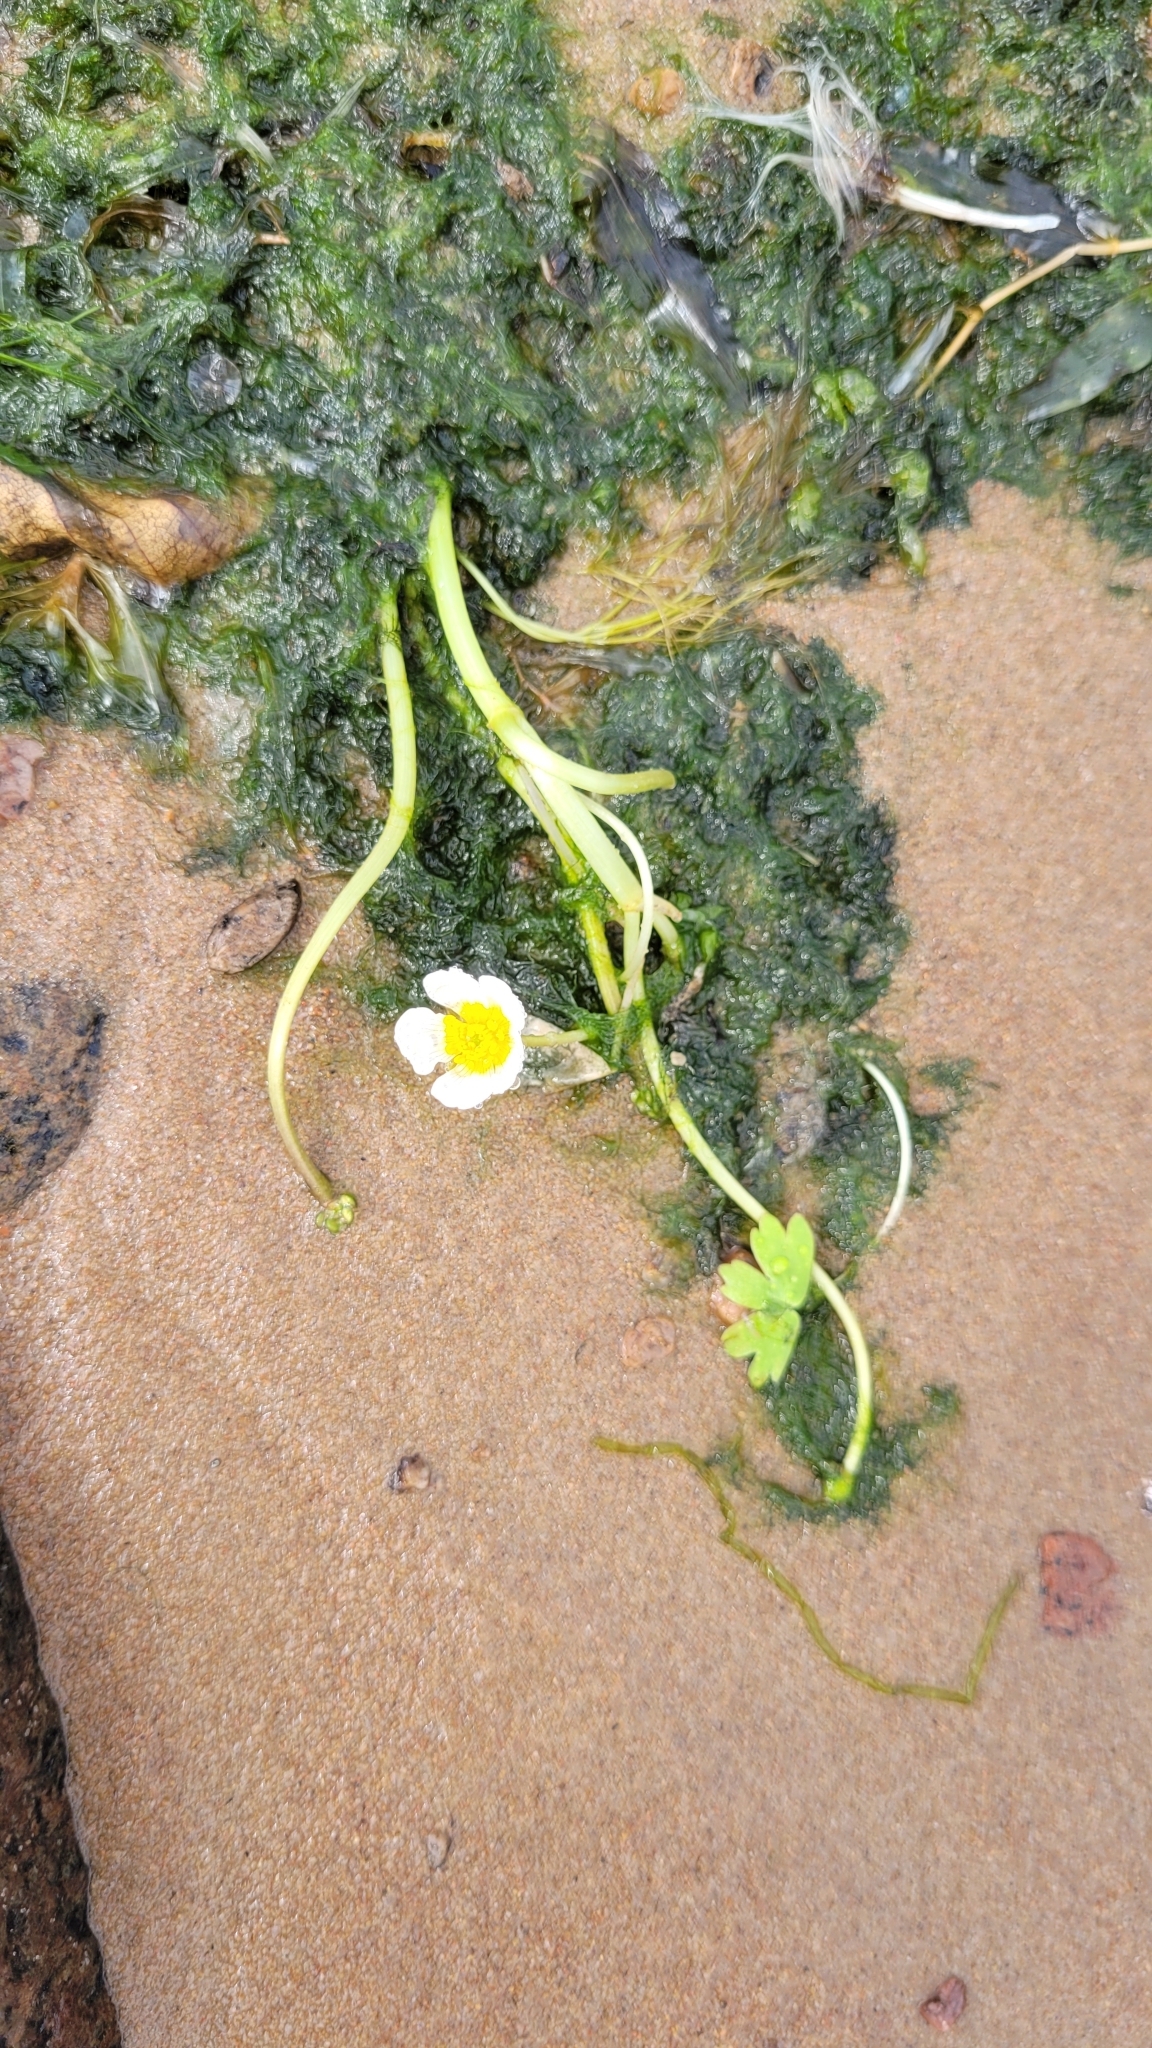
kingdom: Plantae
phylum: Tracheophyta
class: Magnoliopsida
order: Ranunculales
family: Ranunculaceae
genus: Ranunculus
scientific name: Ranunculus aquatilis
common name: Common water-crowfoot
